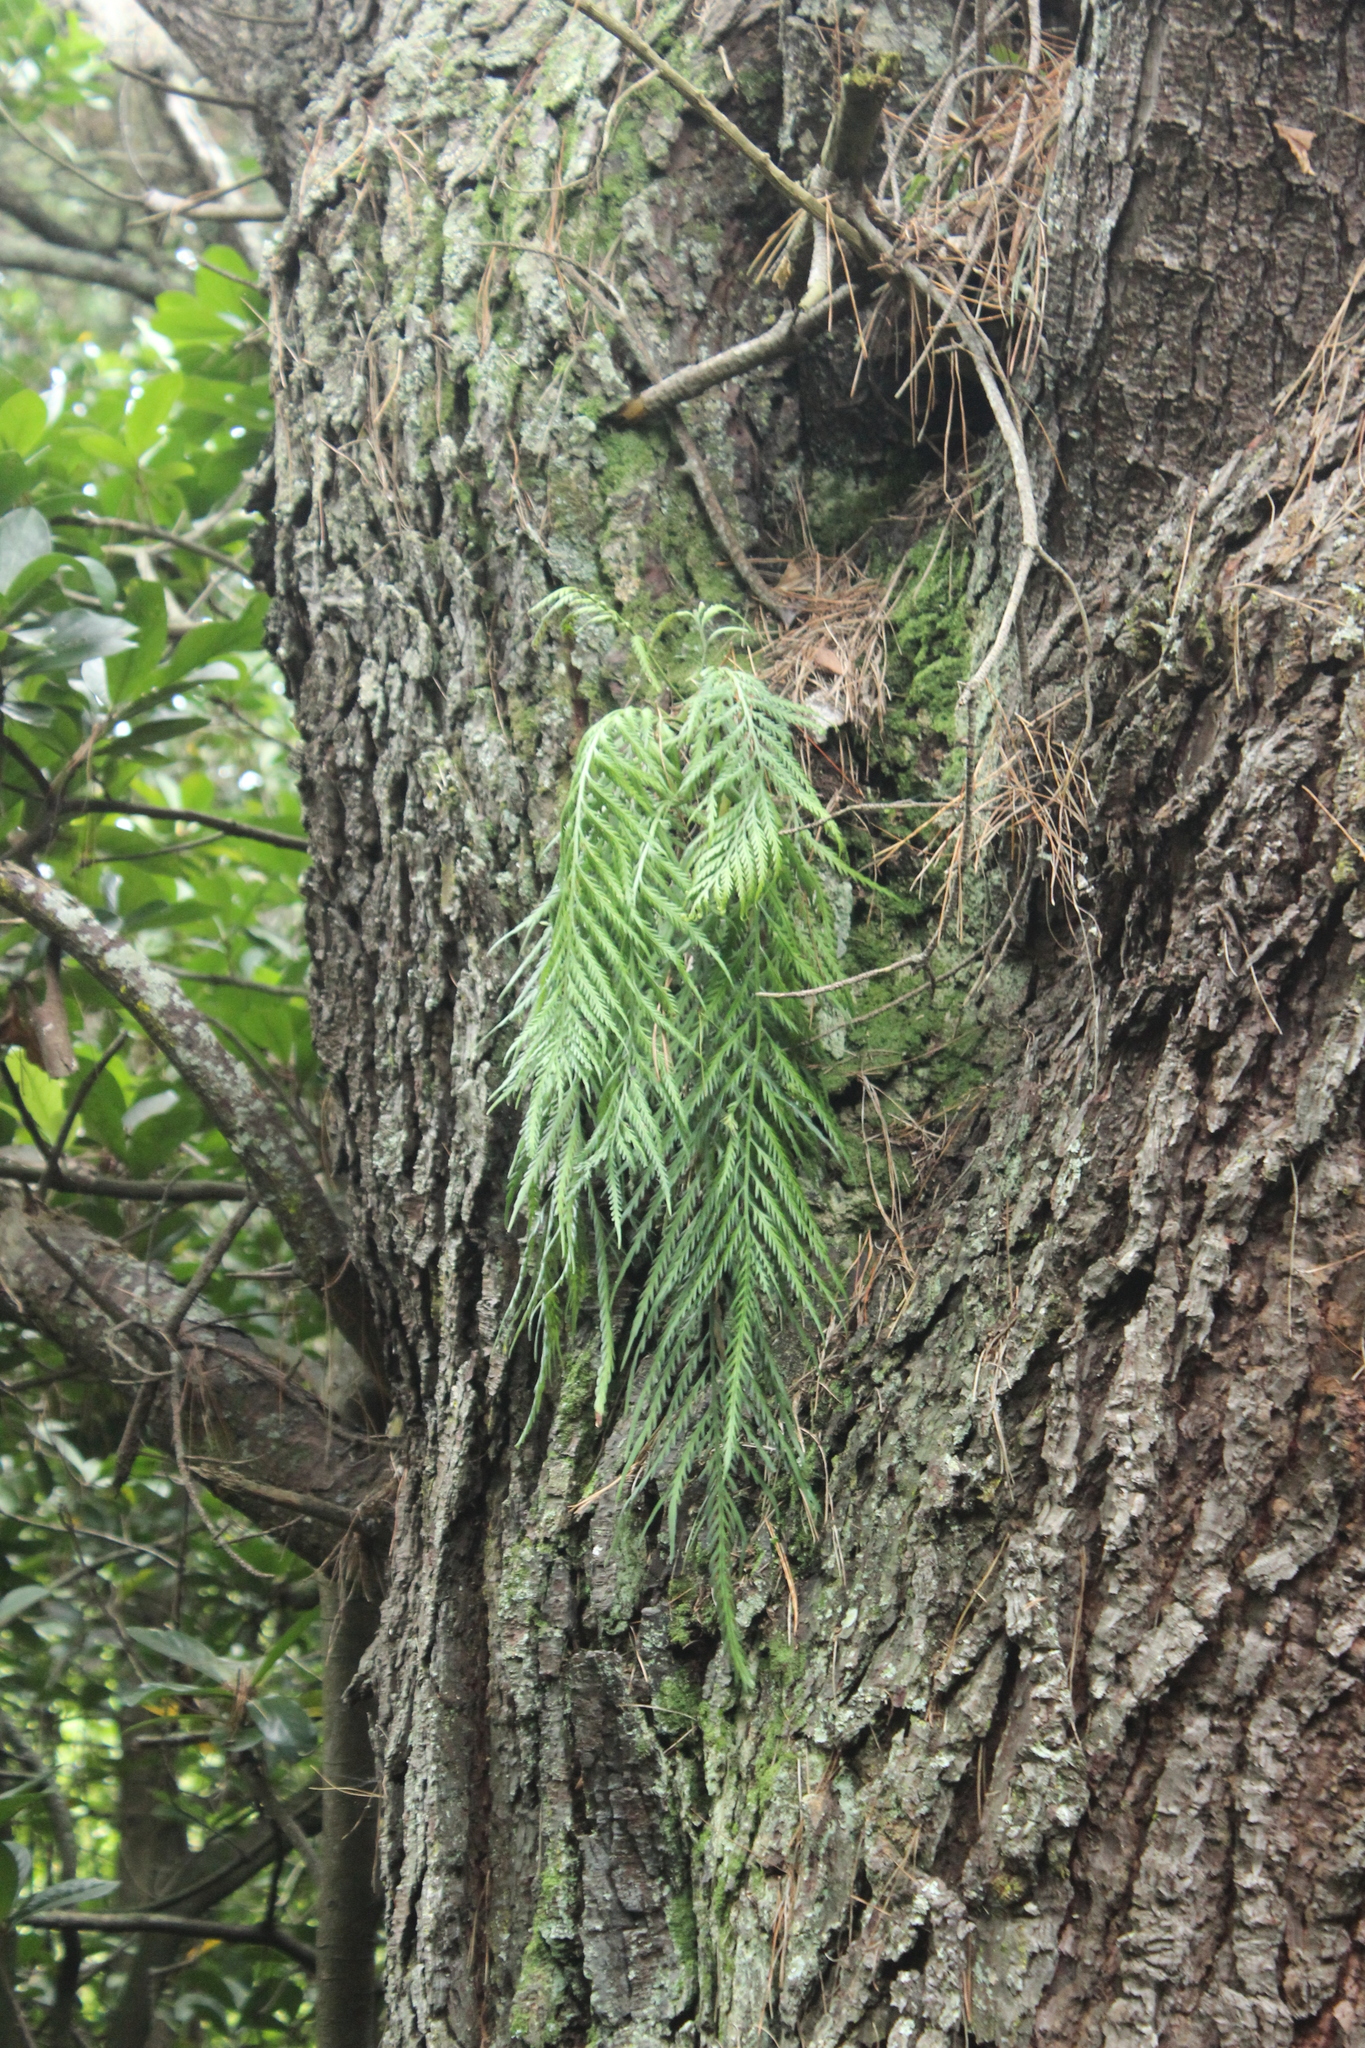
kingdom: Plantae
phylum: Tracheophyta
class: Polypodiopsida
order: Polypodiales
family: Aspleniaceae
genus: Asplenium
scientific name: Asplenium flaccidum
